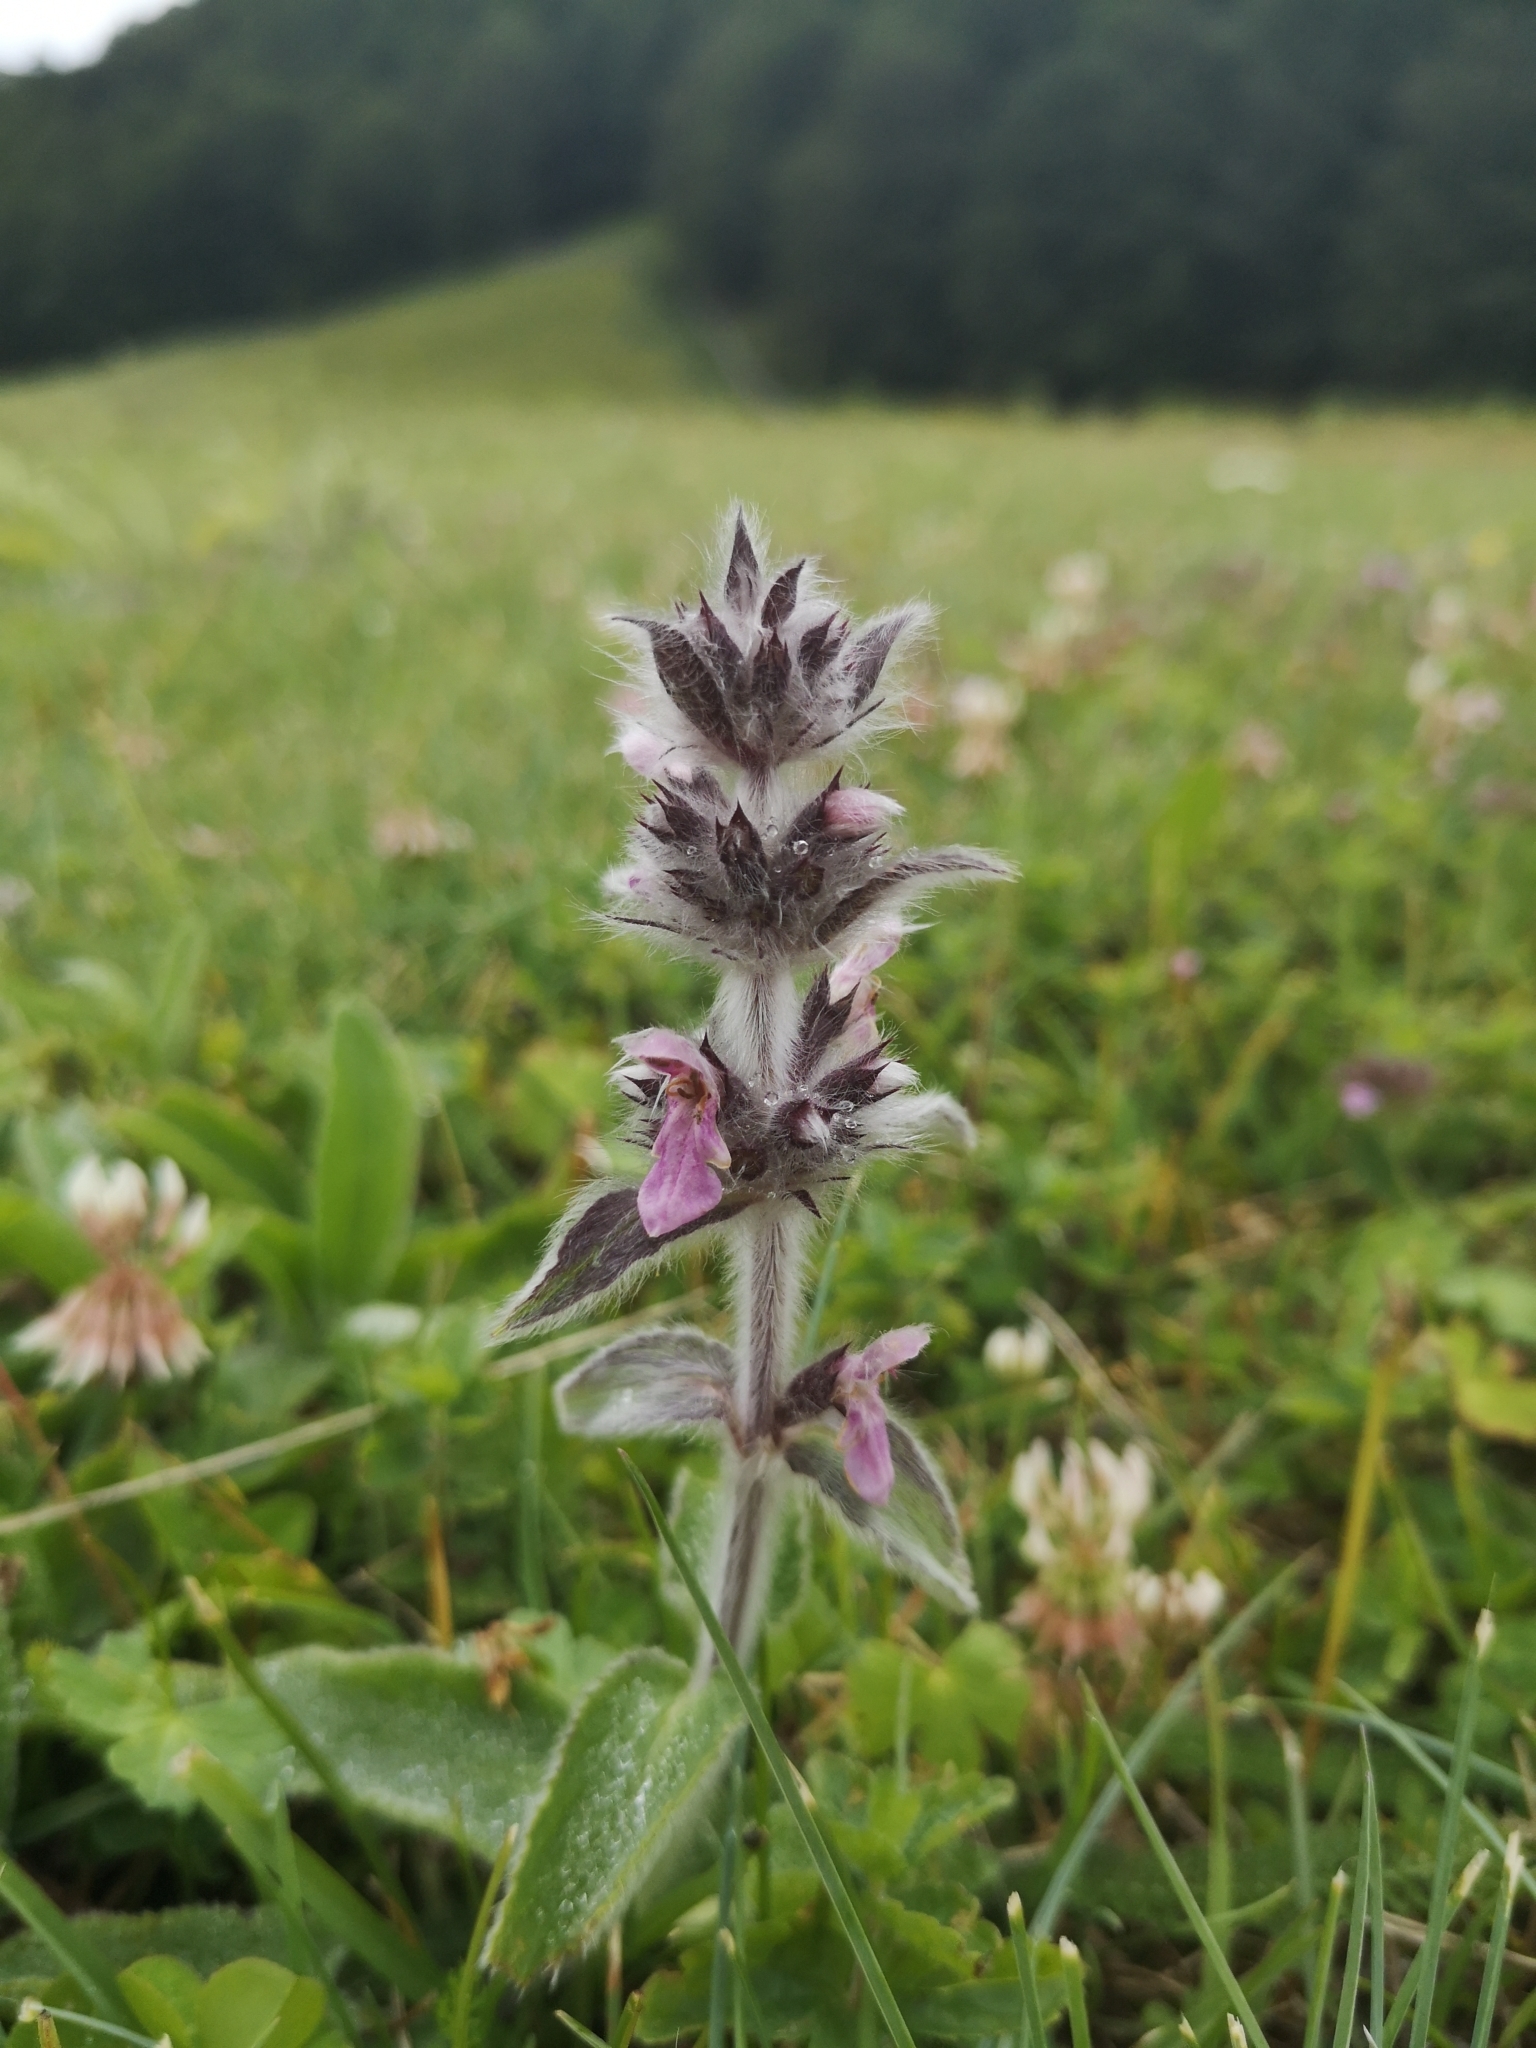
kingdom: Plantae
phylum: Tracheophyta
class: Magnoliopsida
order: Lamiales
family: Lamiaceae
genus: Stachys
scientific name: Stachys germanica
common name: Downy woundwort
